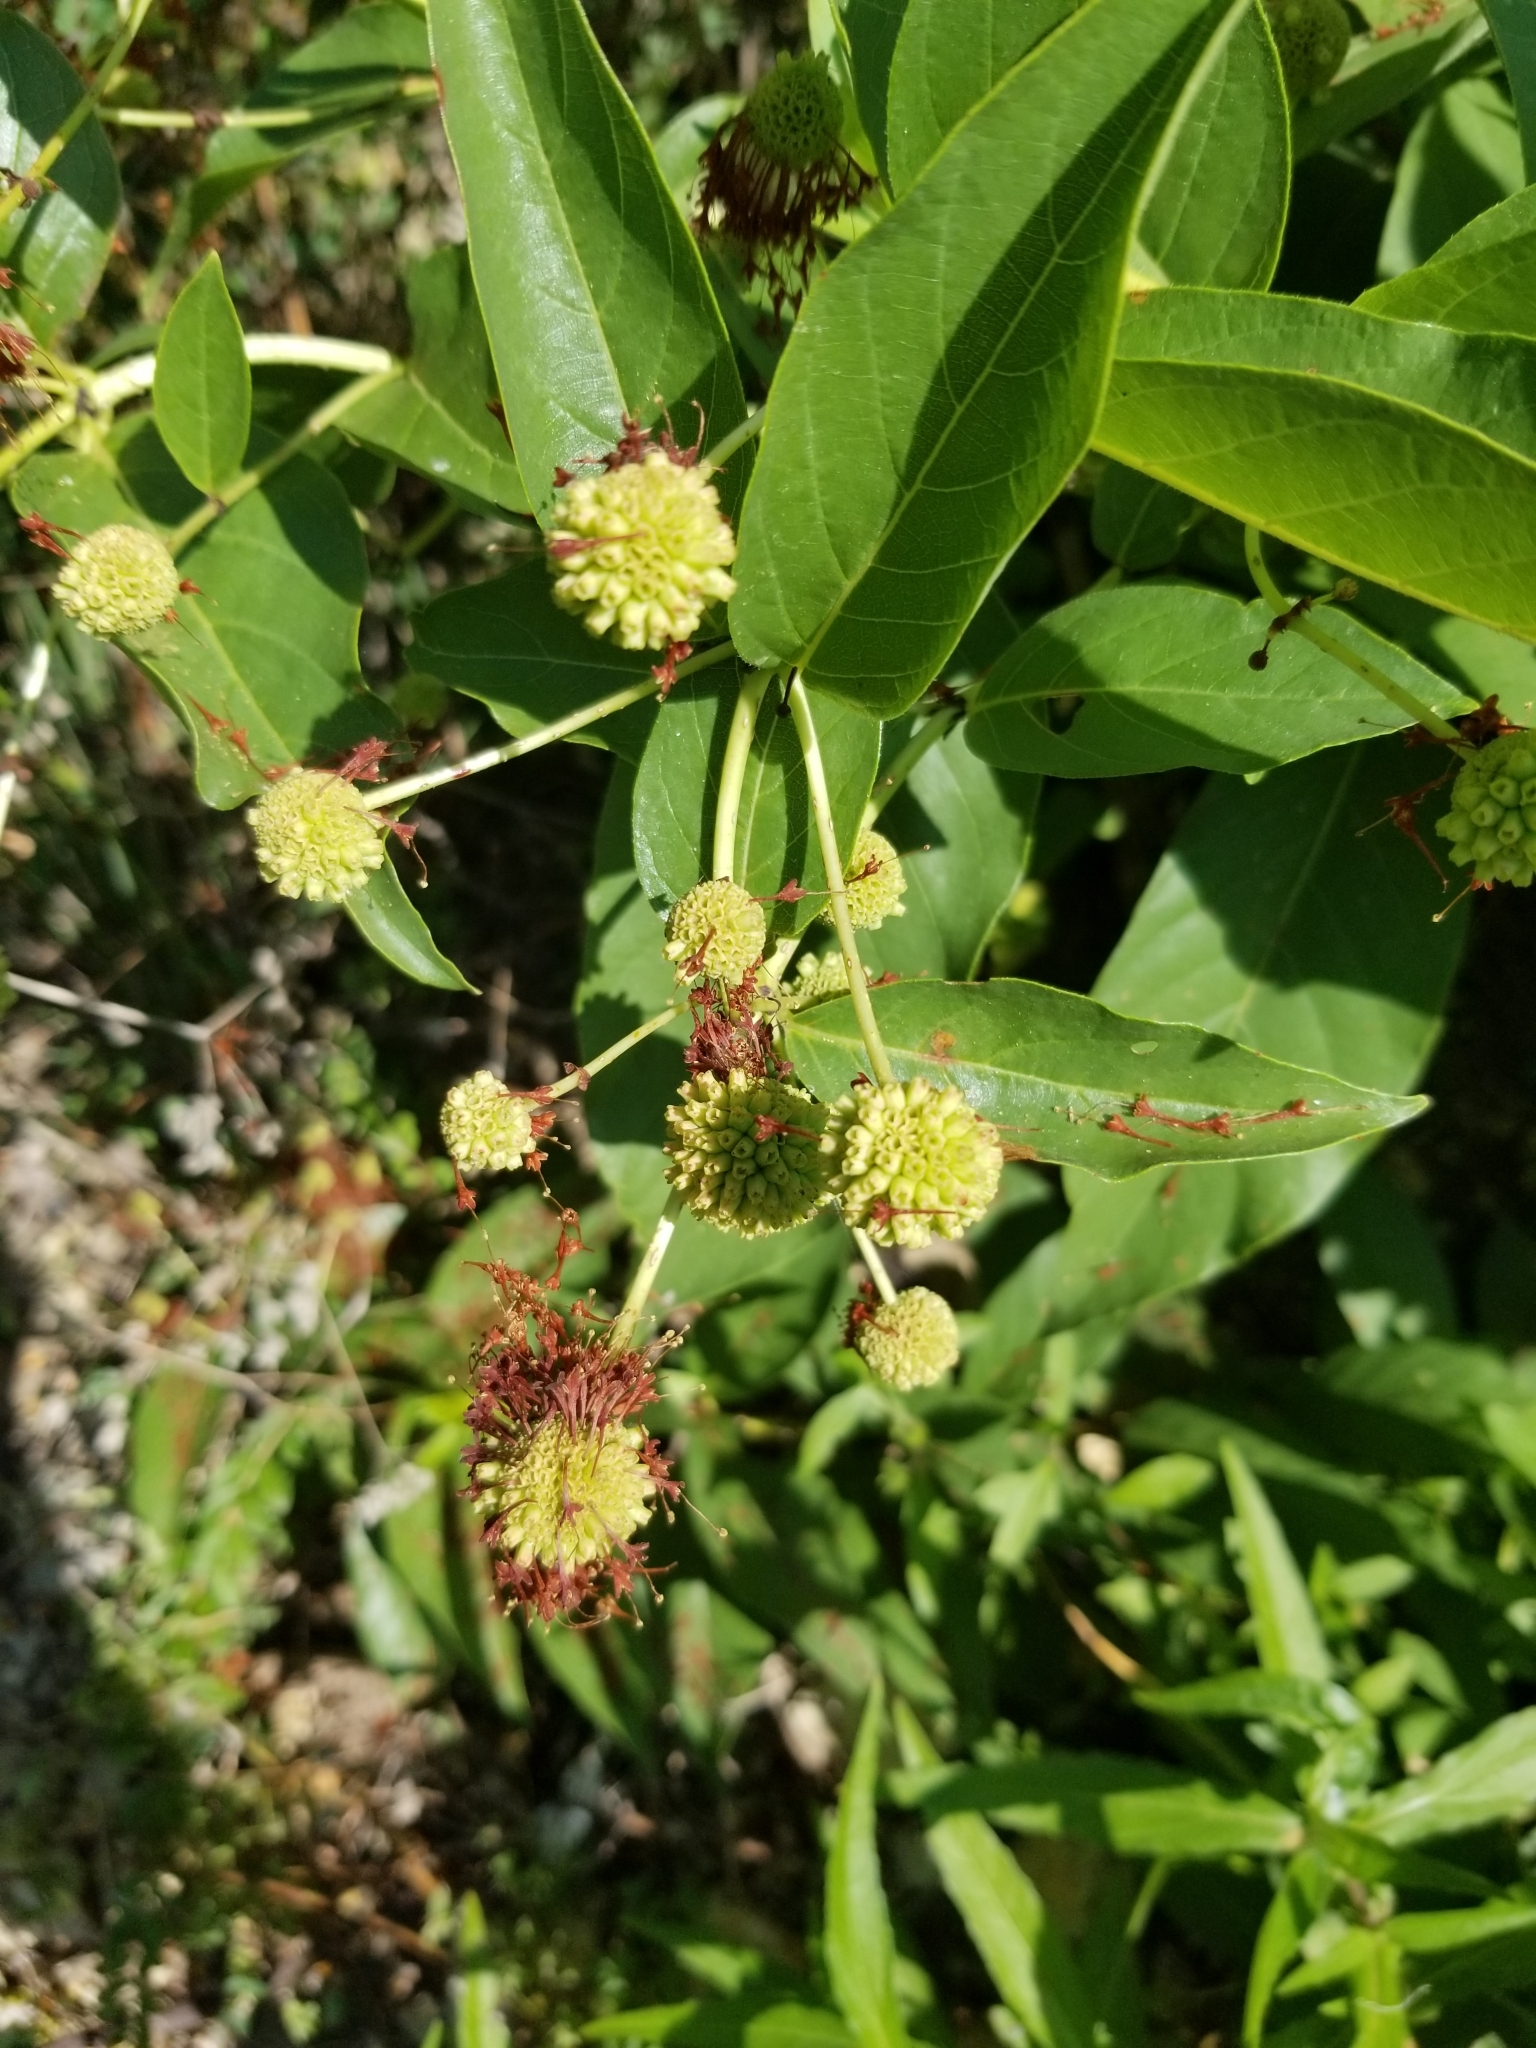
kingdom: Plantae
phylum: Tracheophyta
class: Magnoliopsida
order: Gentianales
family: Rubiaceae
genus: Cephalanthus
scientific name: Cephalanthus occidentalis
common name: Button-willow
